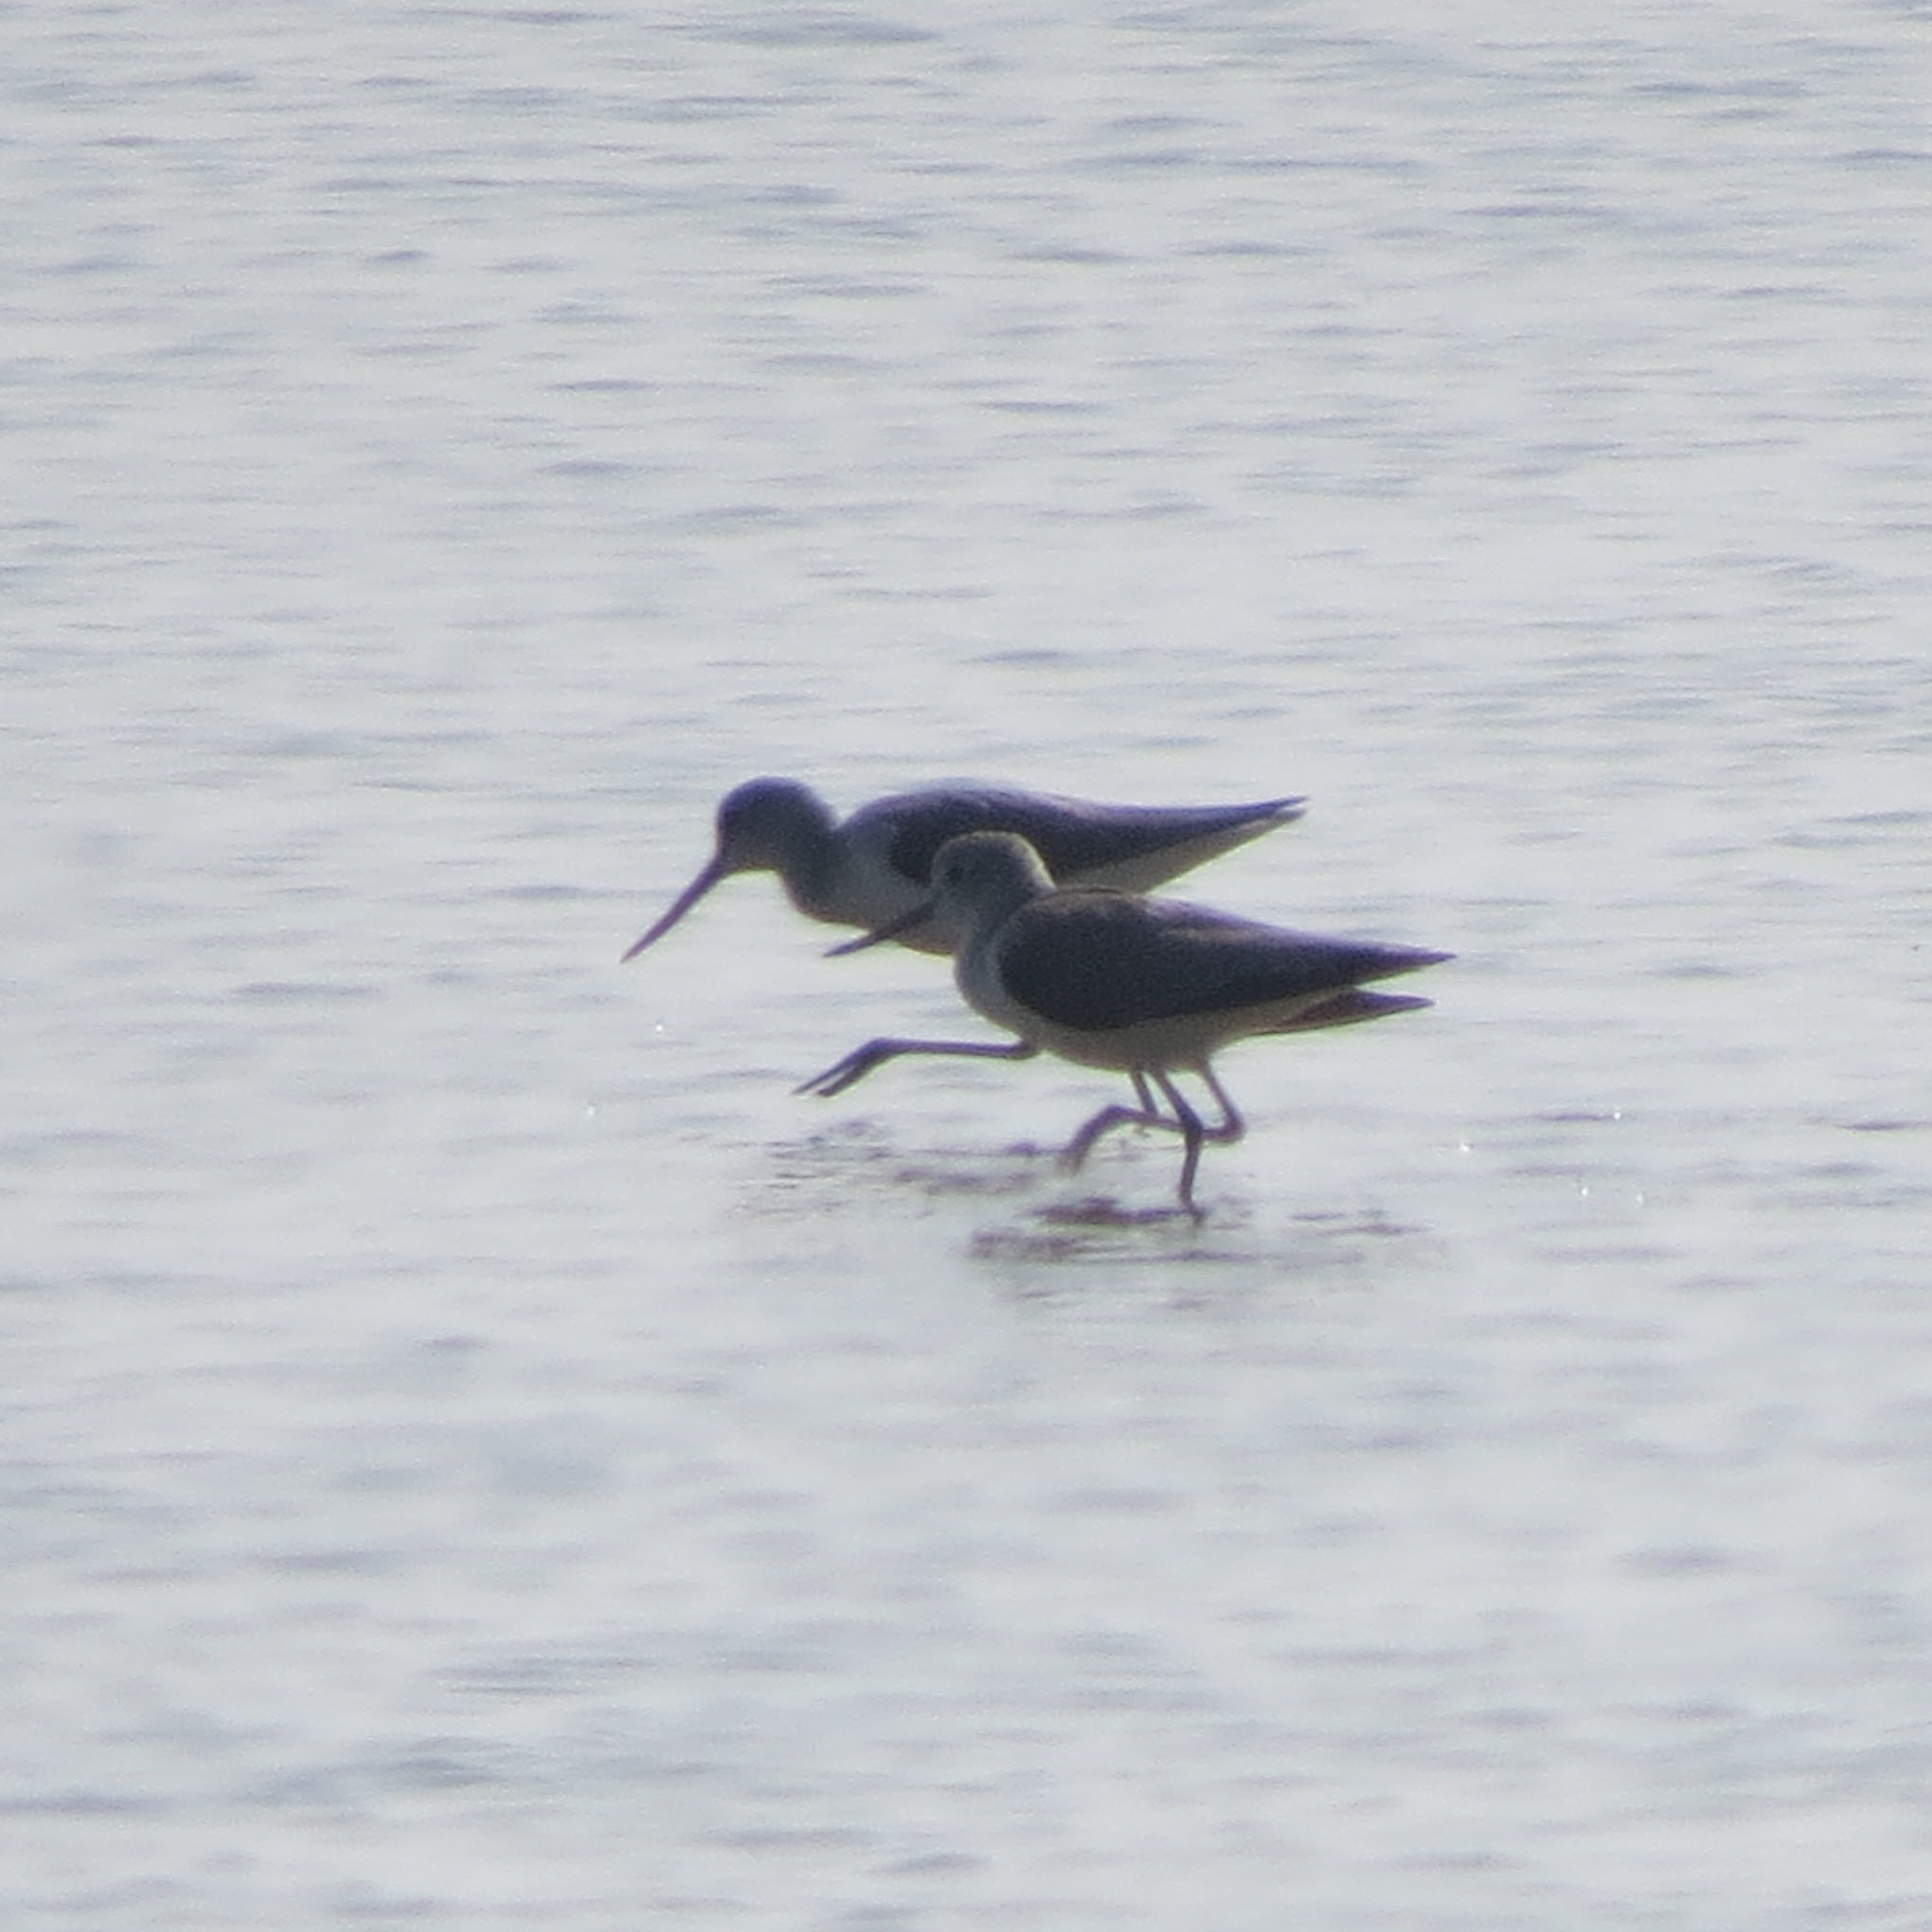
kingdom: Animalia
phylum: Chordata
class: Aves
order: Charadriiformes
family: Scolopacidae
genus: Xenus
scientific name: Xenus cinereus
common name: Terek sandpiper
